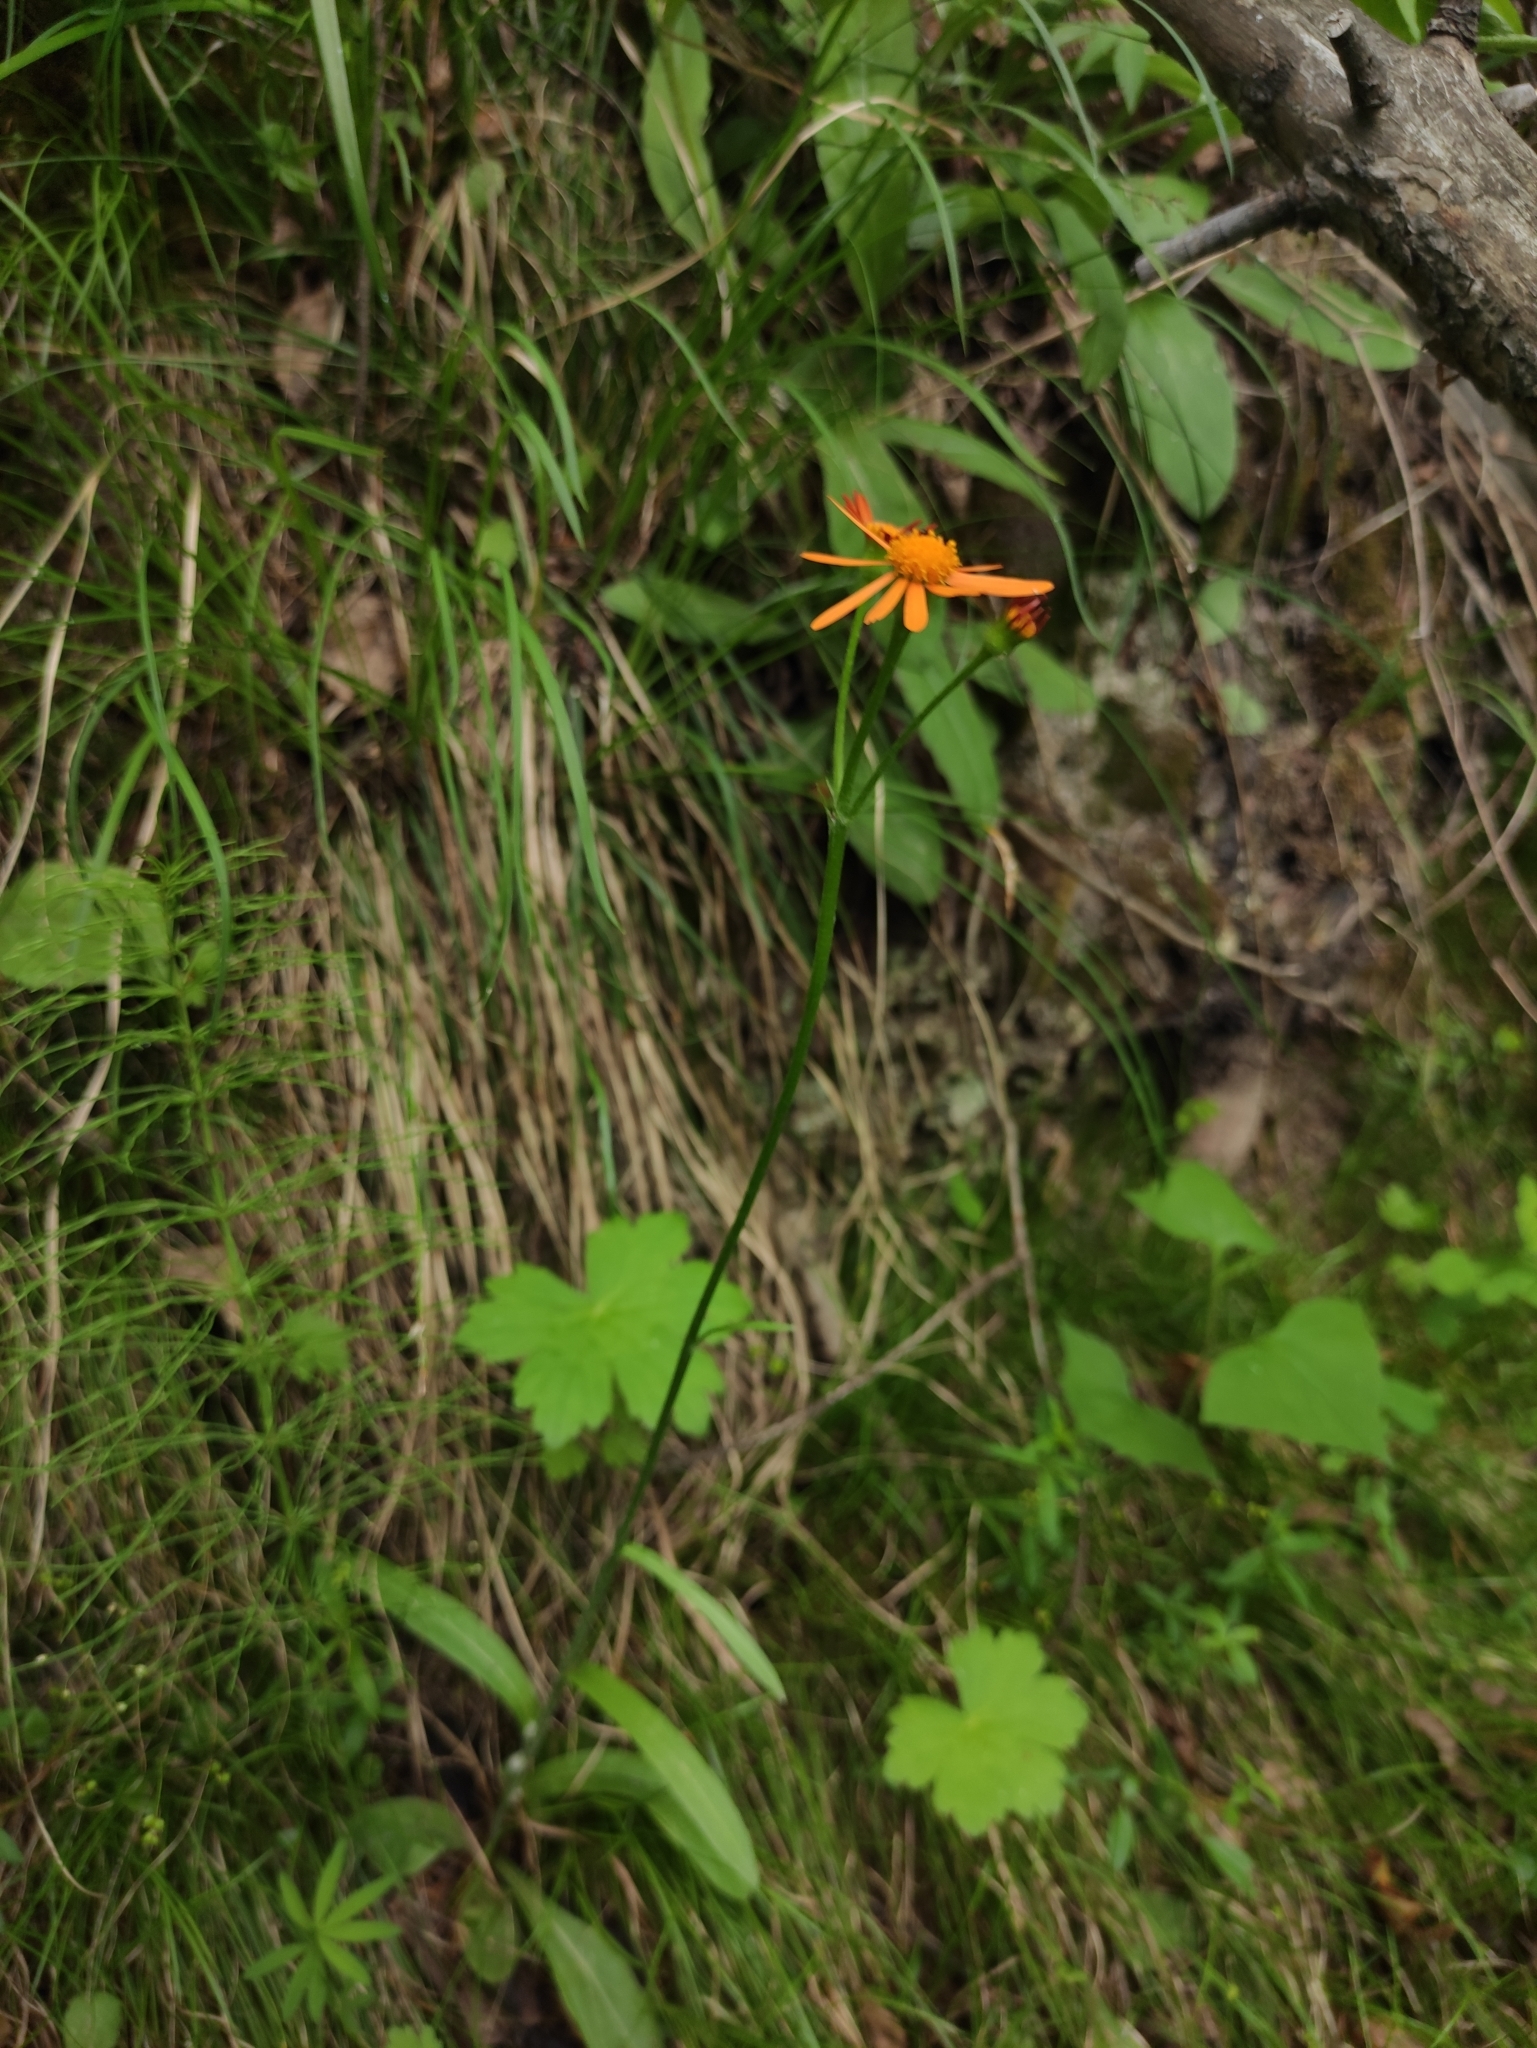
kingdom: Plantae
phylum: Tracheophyta
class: Magnoliopsida
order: Asterales
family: Asteraceae
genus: Tephroseris
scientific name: Tephroseris porphyrantha
